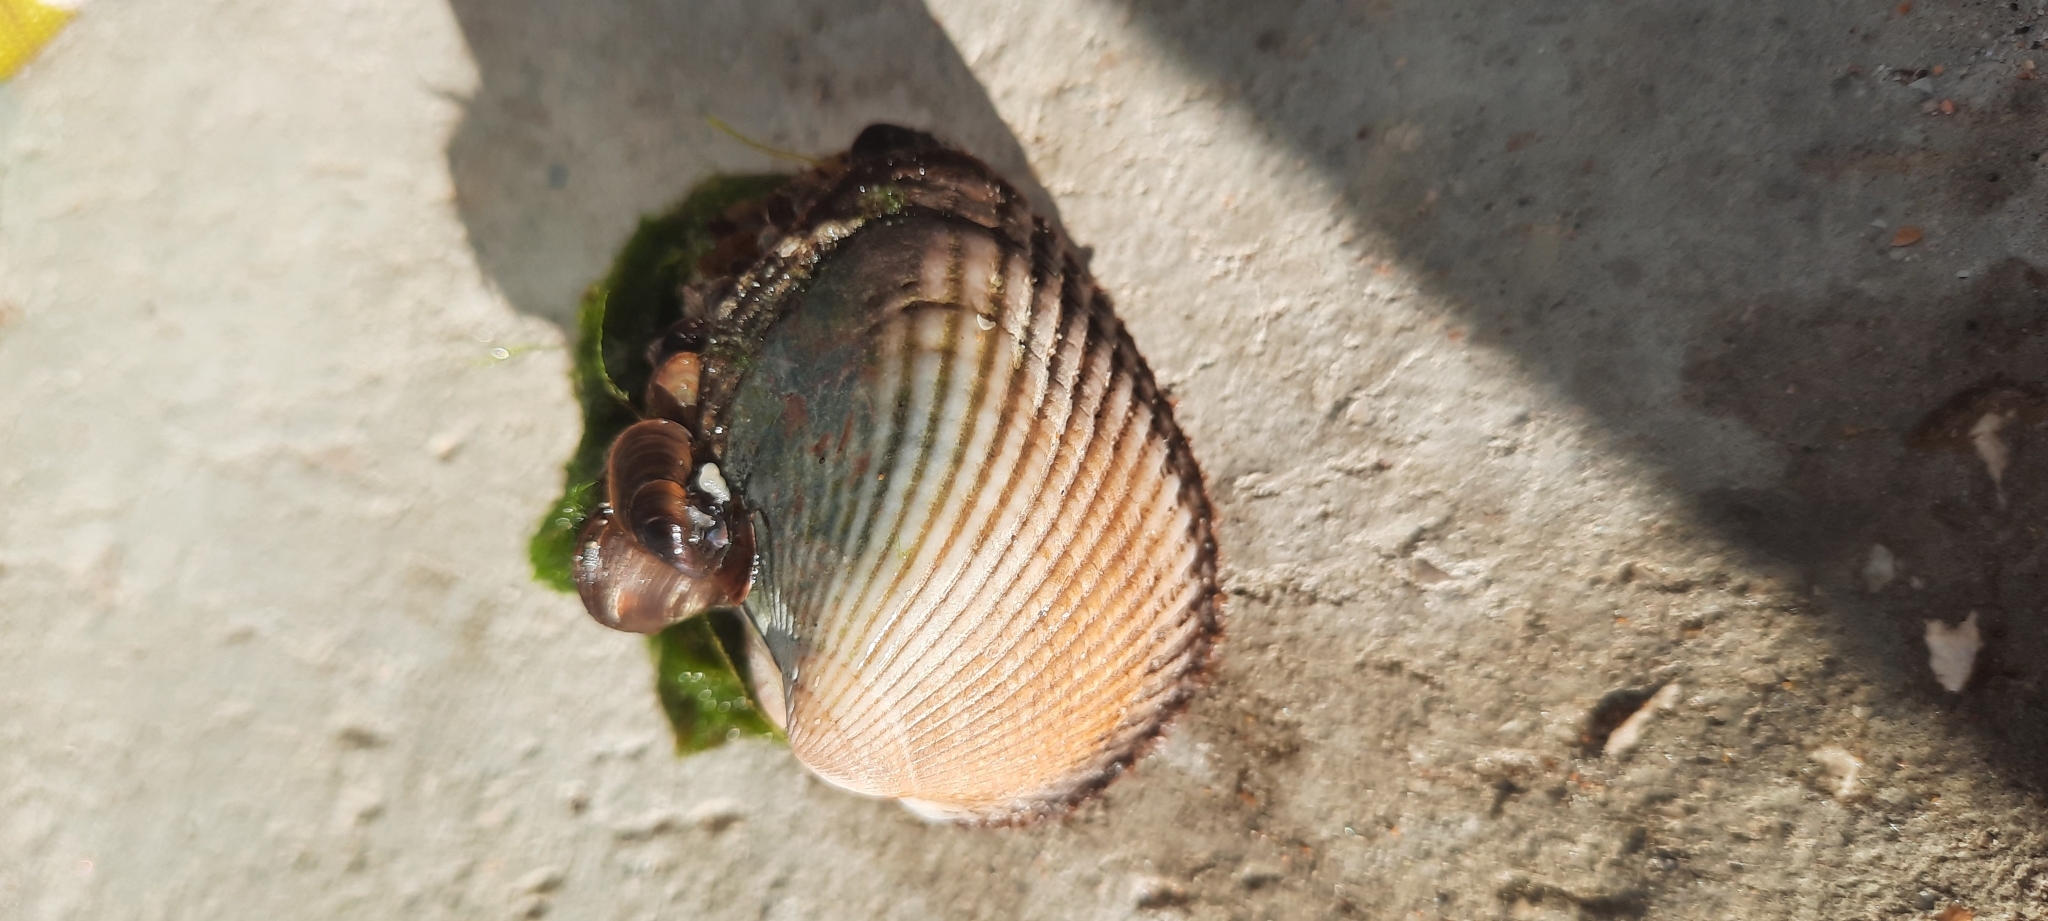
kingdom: Animalia
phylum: Mollusca
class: Bivalvia
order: Arcida
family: Arcidae
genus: Anadara
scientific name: Anadara kagoshimensis
